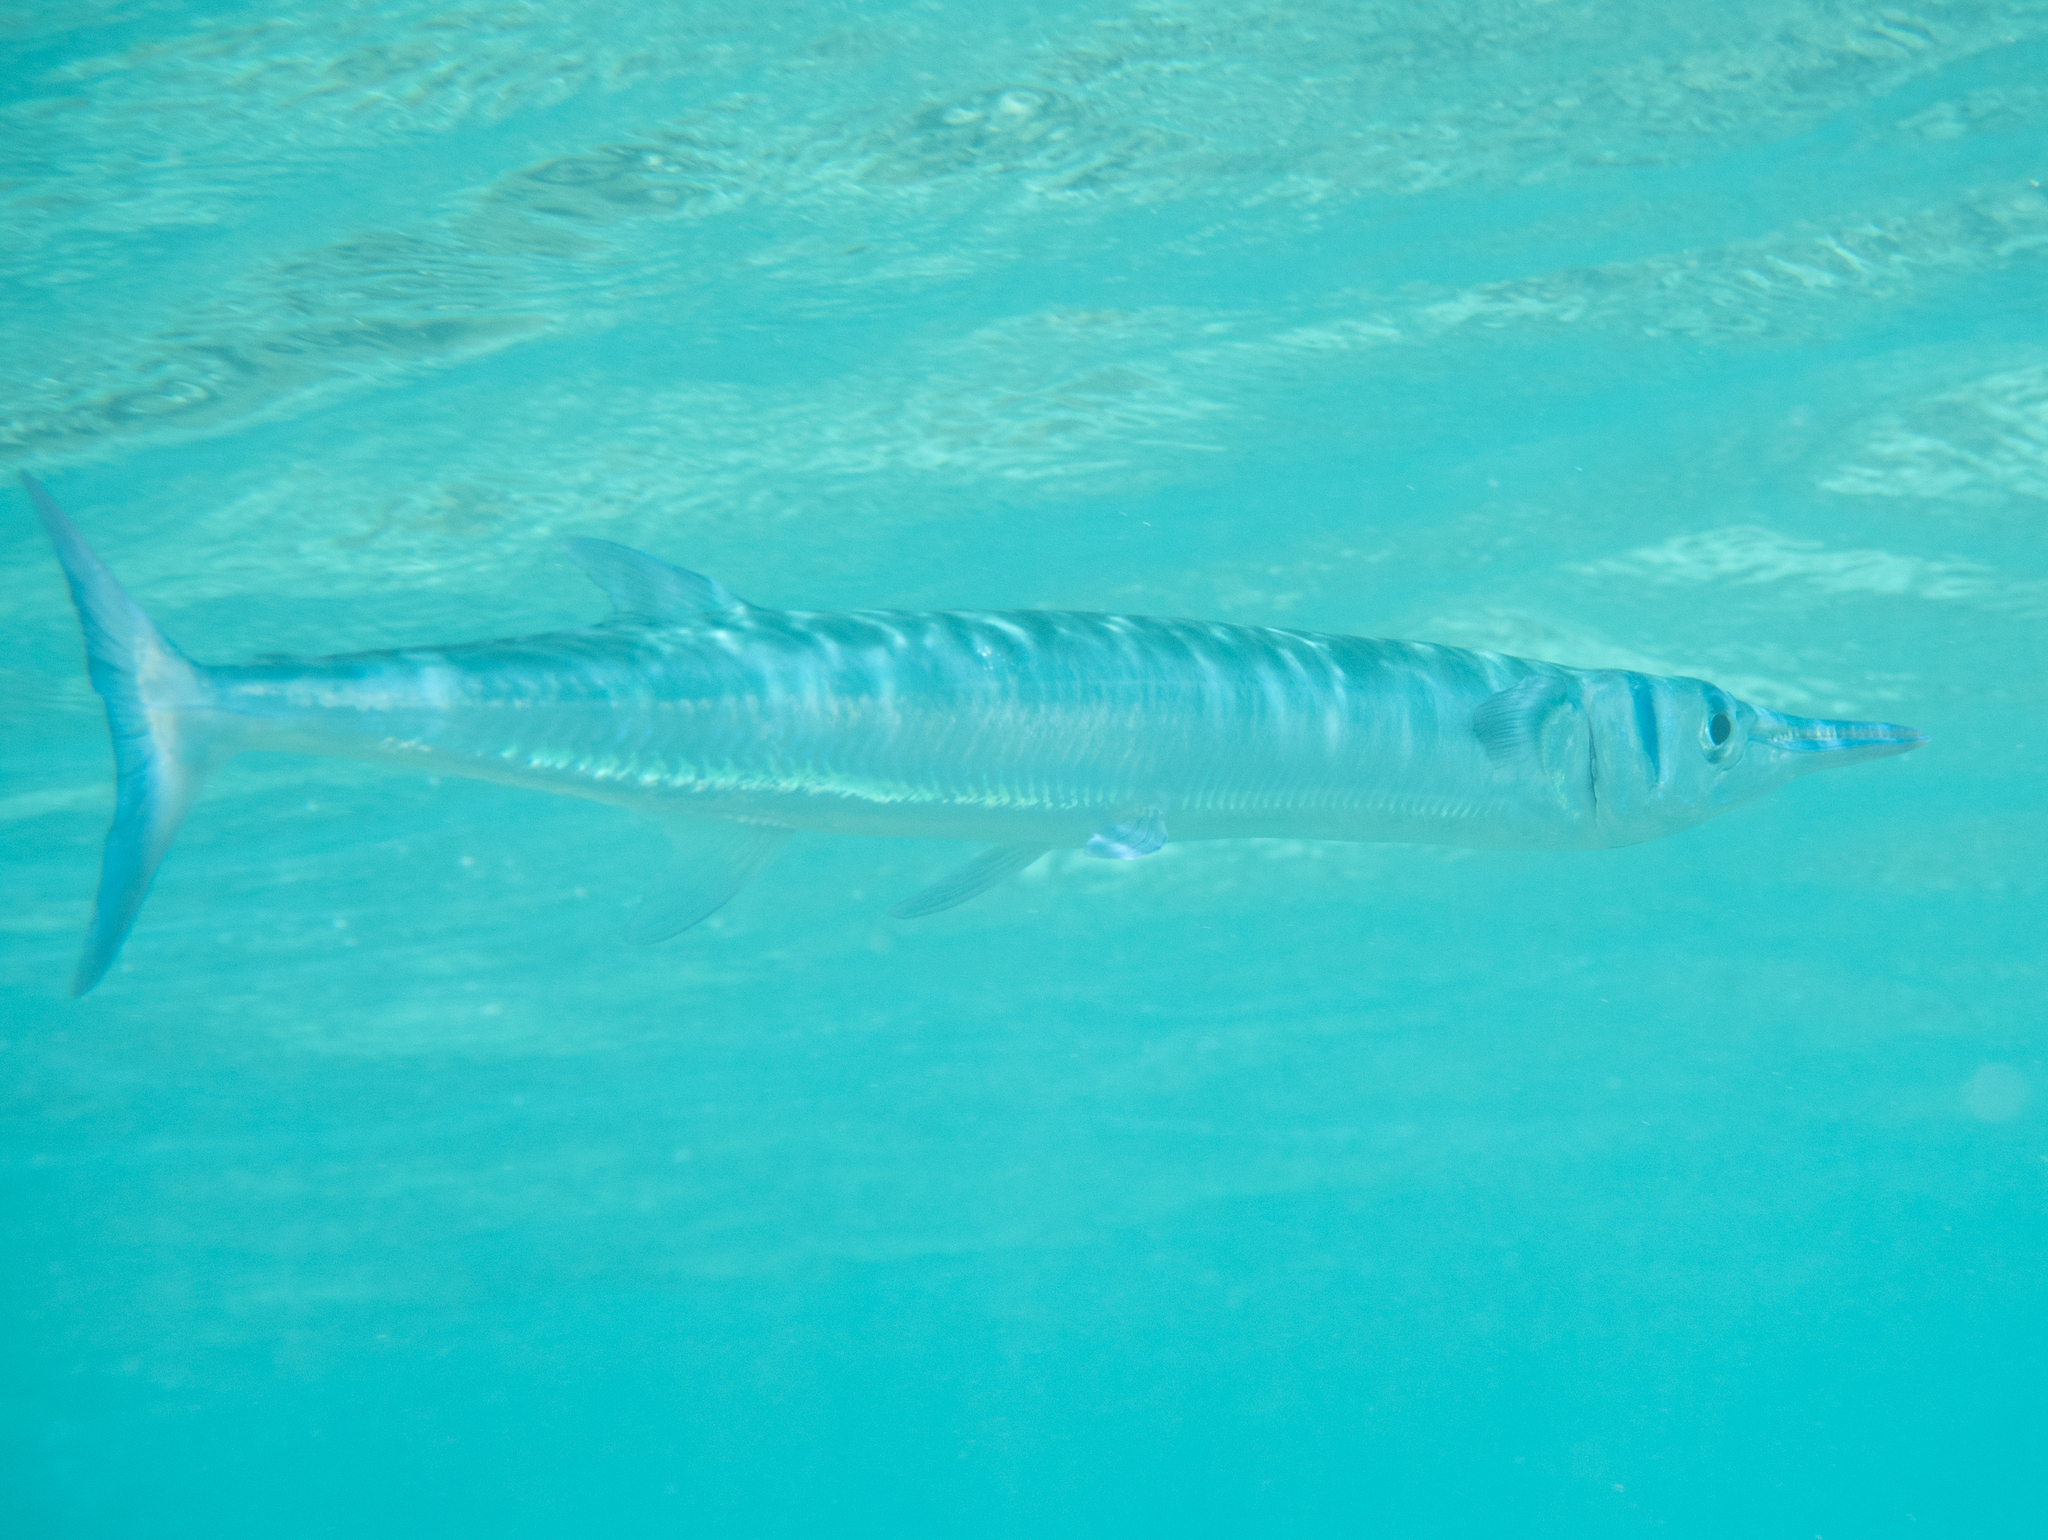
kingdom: Animalia
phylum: Chordata
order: Beloniformes
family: Belonidae
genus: Tylosurus
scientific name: Tylosurus crocodilus
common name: Houndfish
